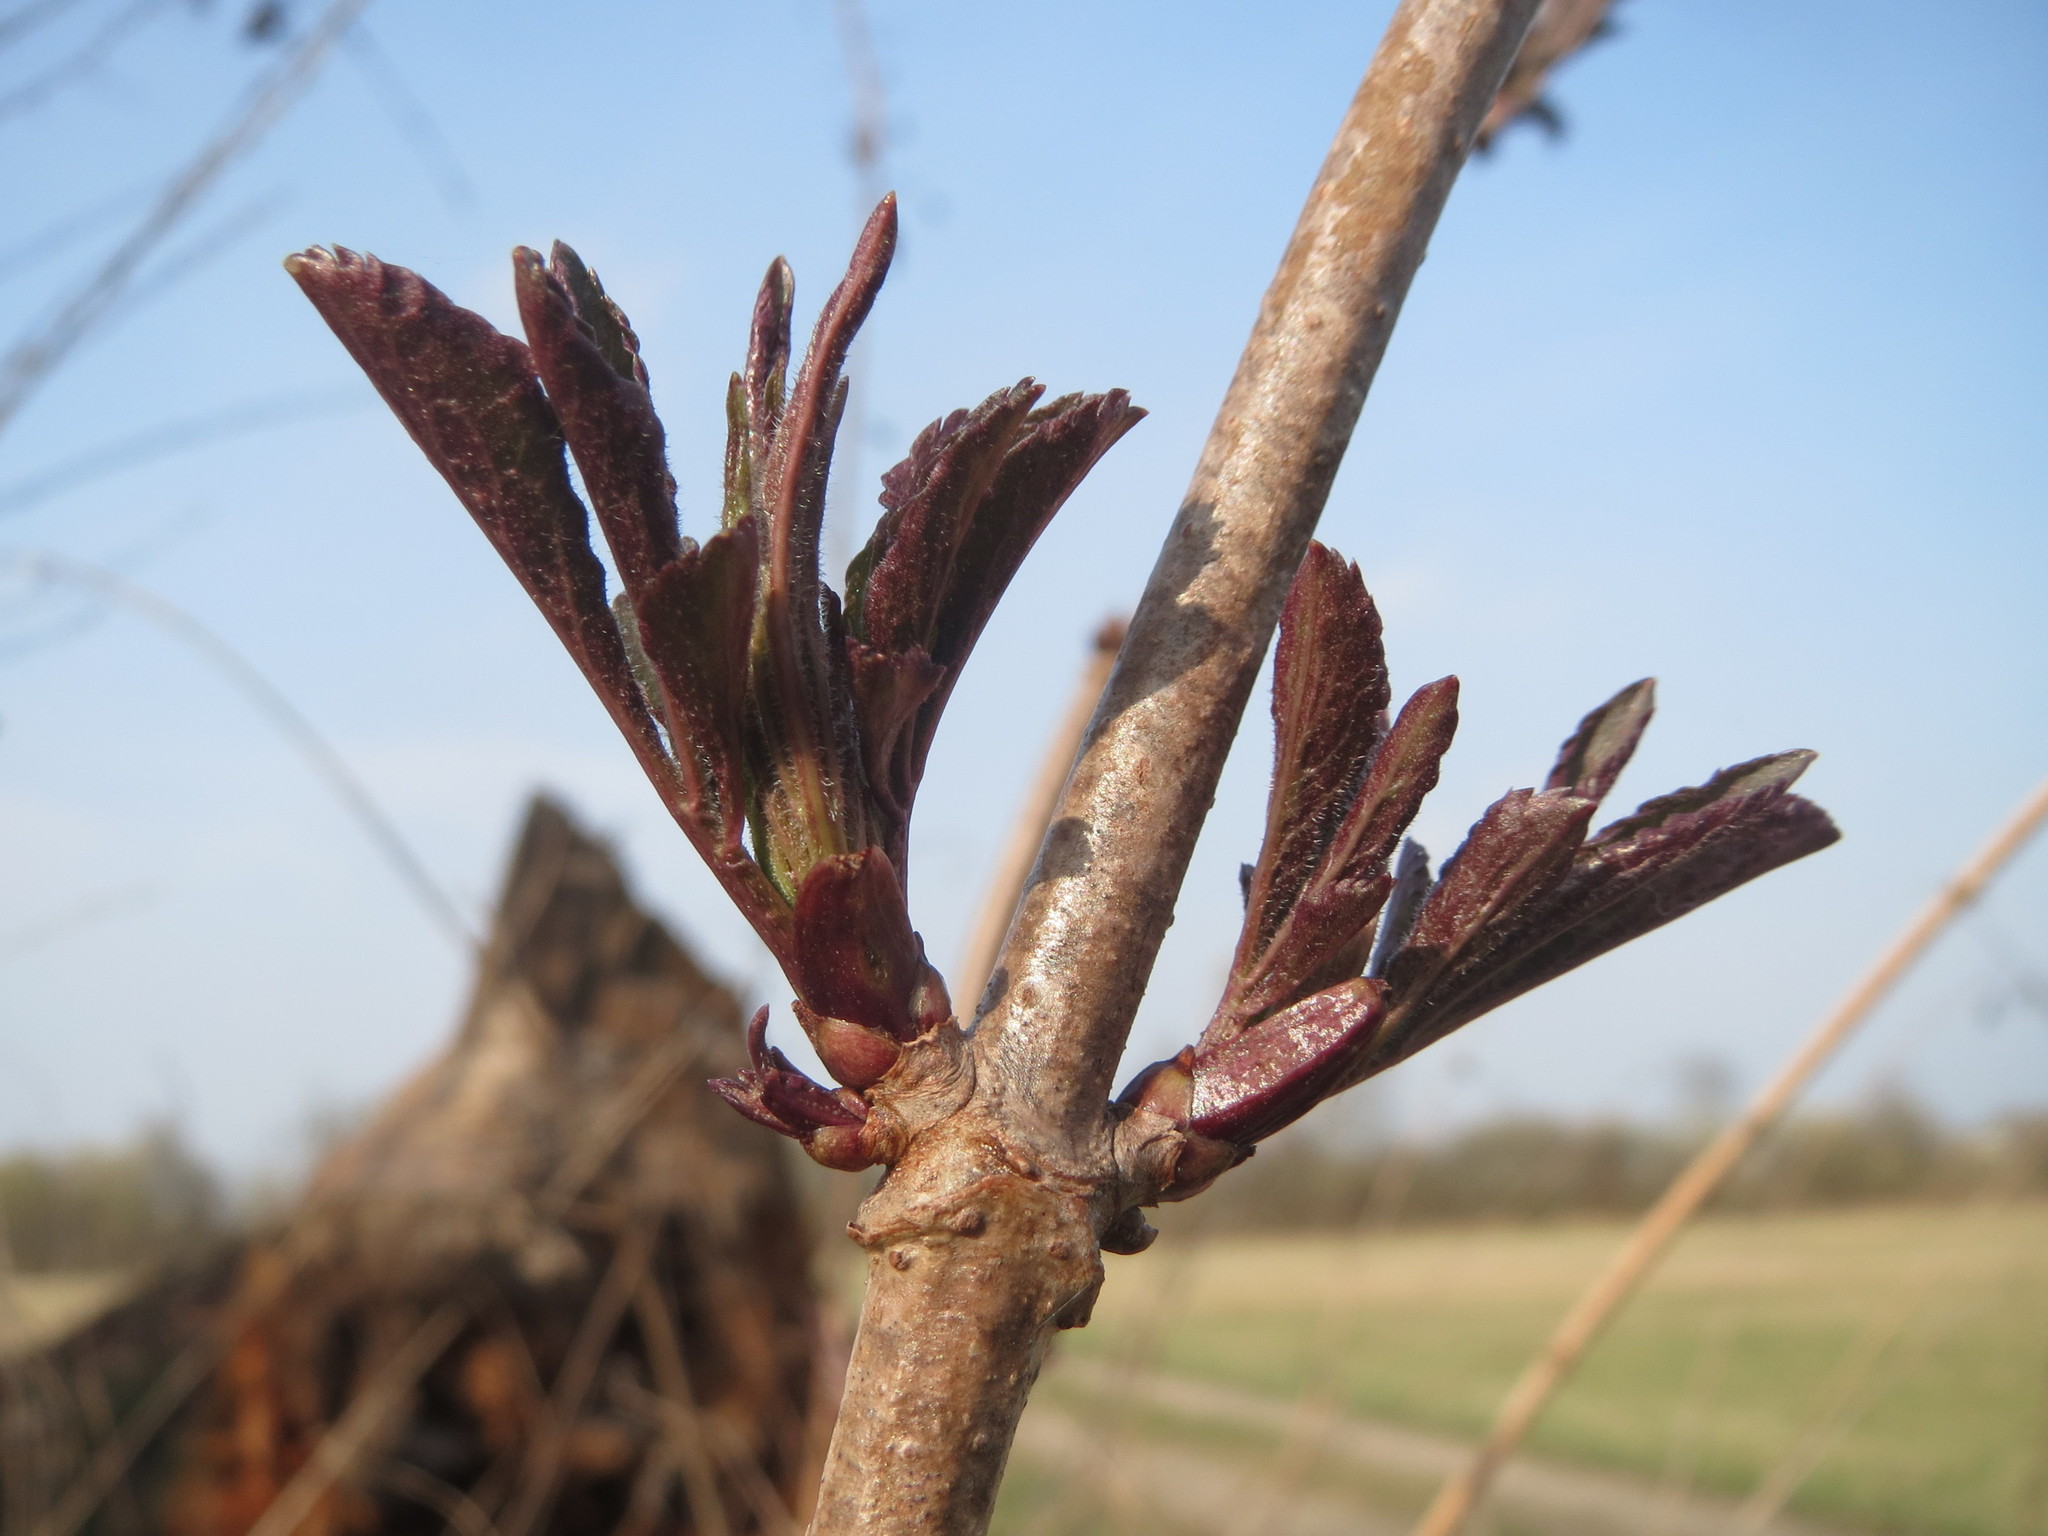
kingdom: Plantae
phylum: Tracheophyta
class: Magnoliopsida
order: Dipsacales
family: Viburnaceae
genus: Sambucus
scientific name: Sambucus nigra
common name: Elder
